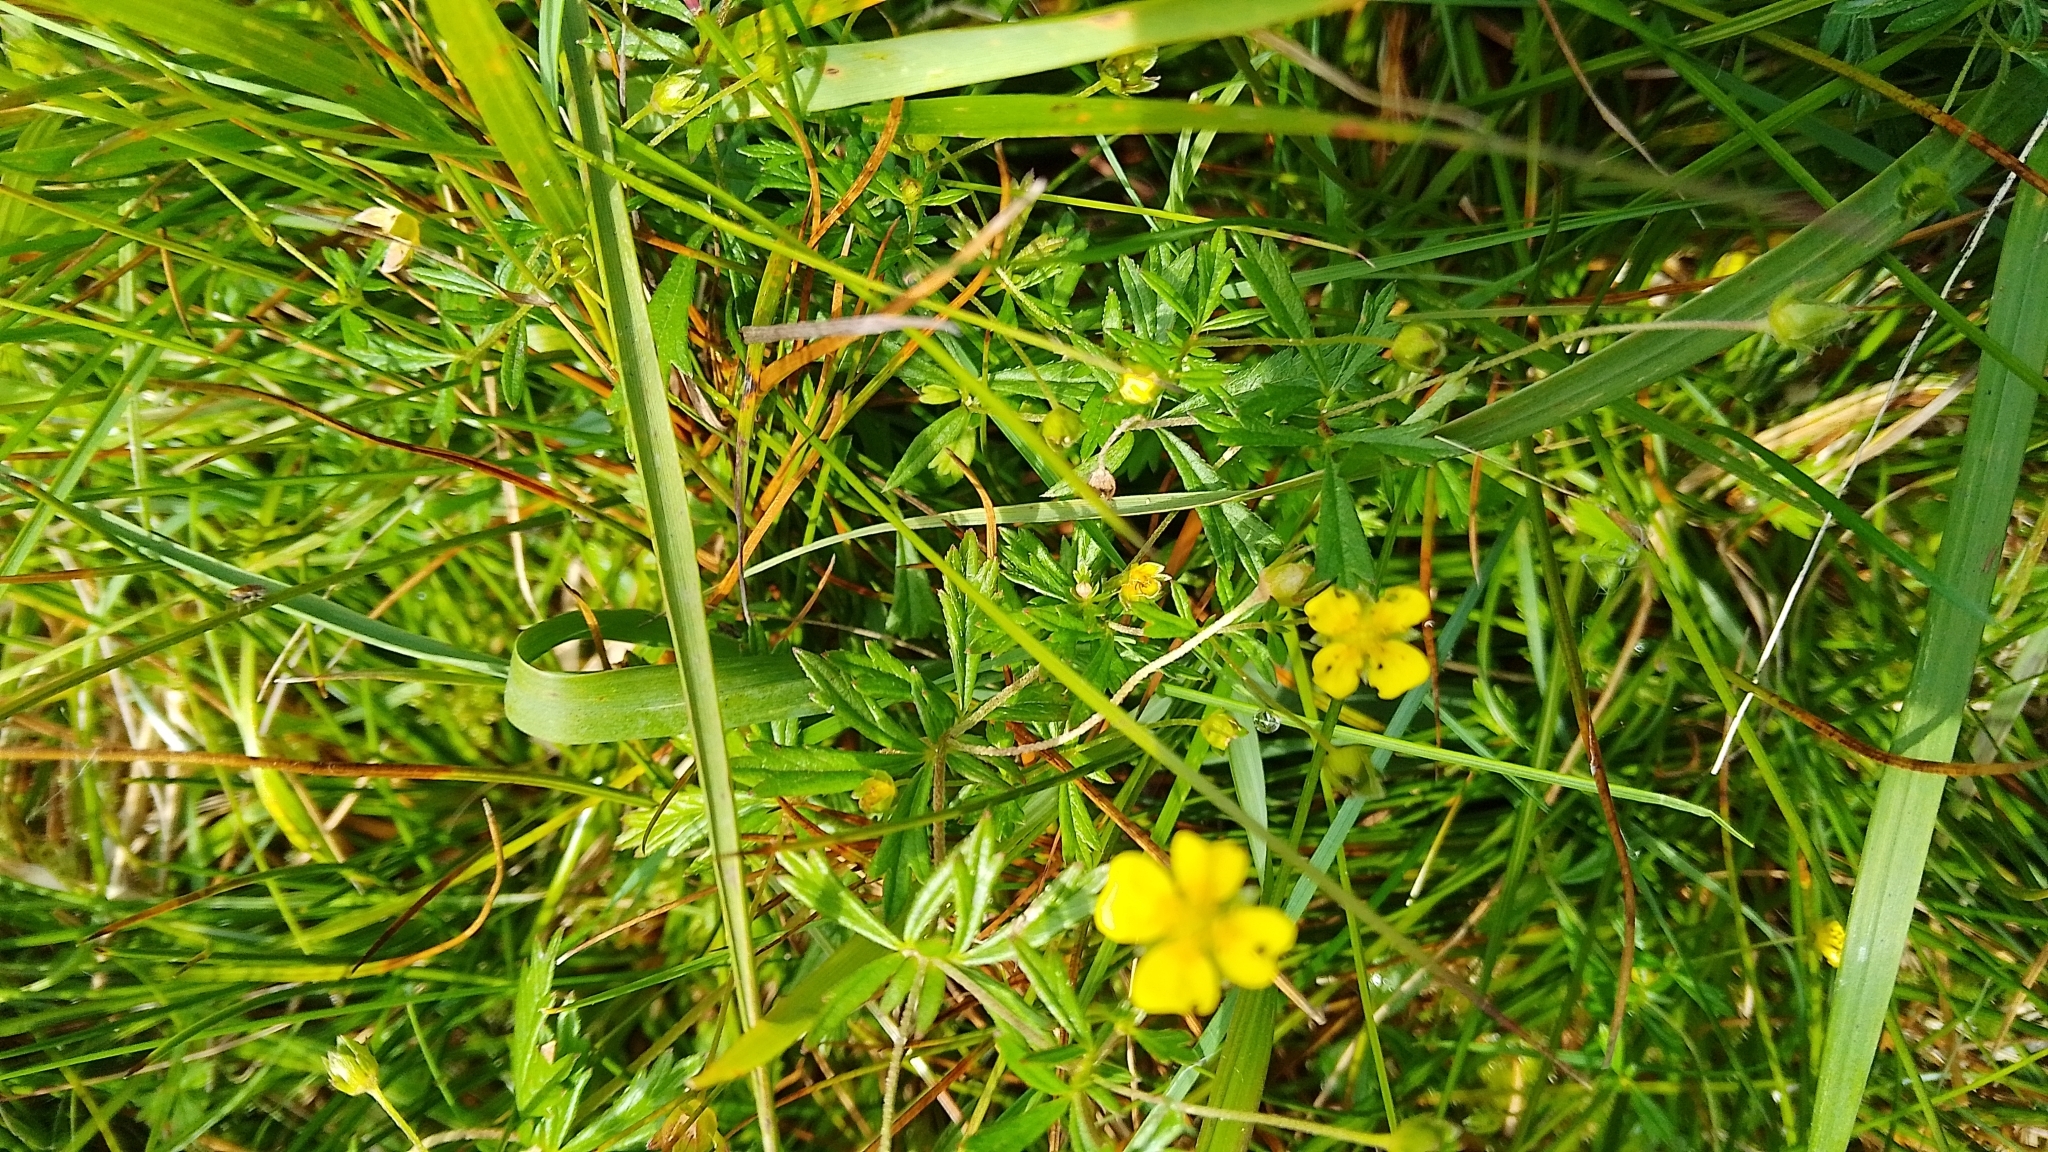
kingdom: Plantae
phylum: Tracheophyta
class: Magnoliopsida
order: Rosales
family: Rosaceae
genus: Potentilla
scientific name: Potentilla erecta
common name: Tormentil
